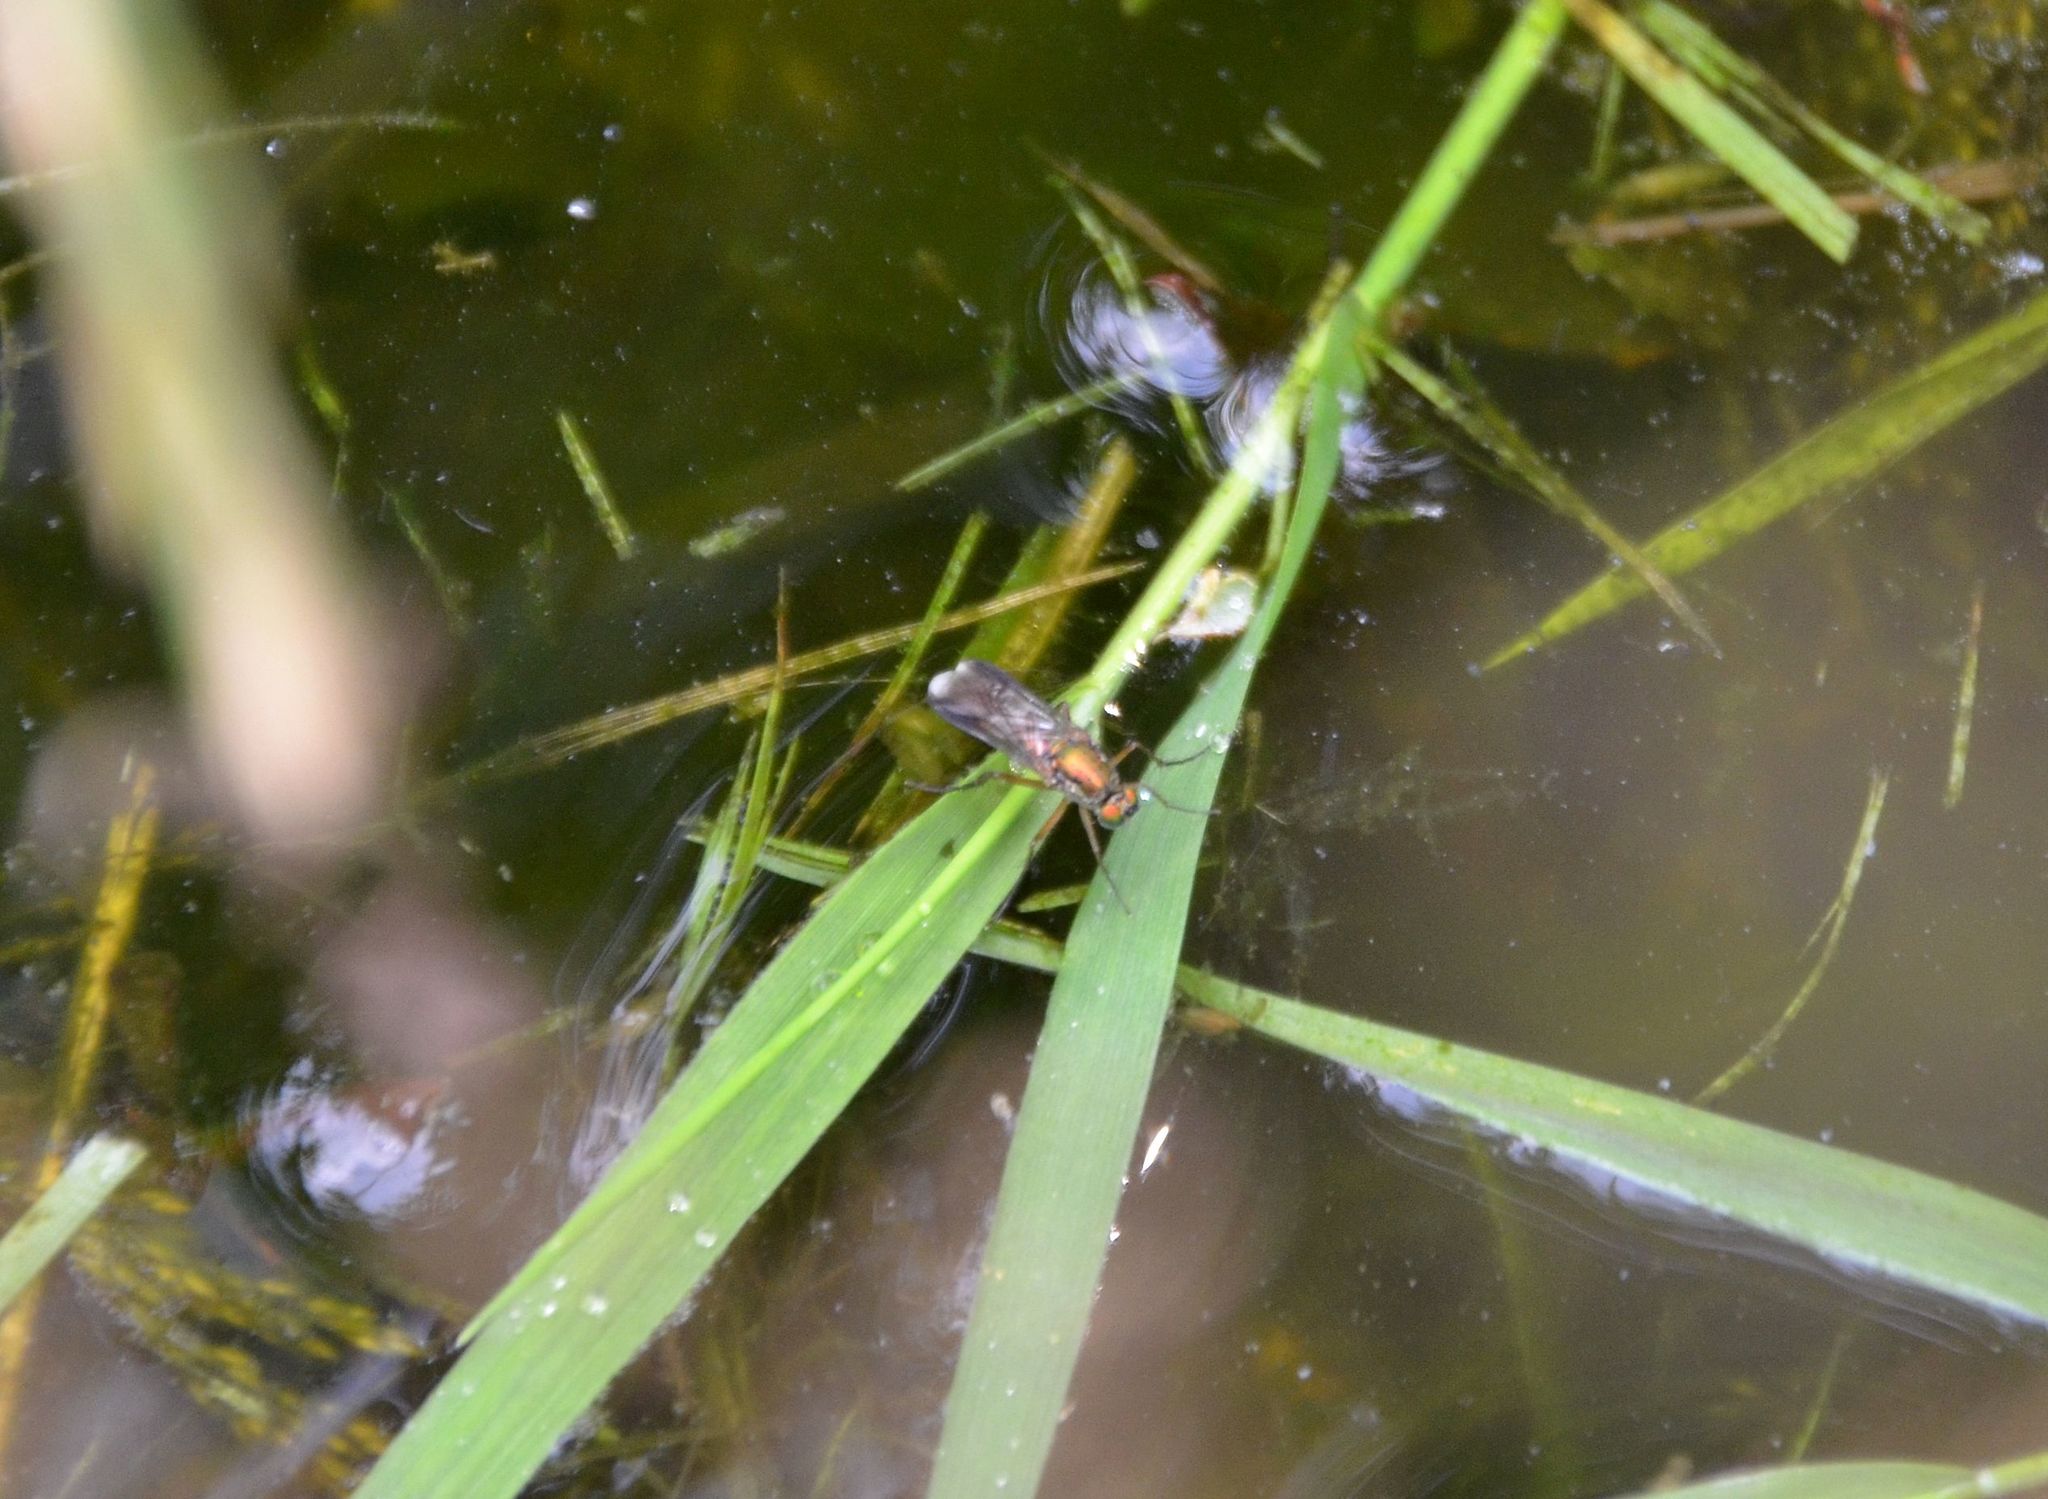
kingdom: Animalia
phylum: Arthropoda
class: Insecta
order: Diptera
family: Dolichopodidae
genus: Poecilobothrus
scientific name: Poecilobothrus nobilitatus
